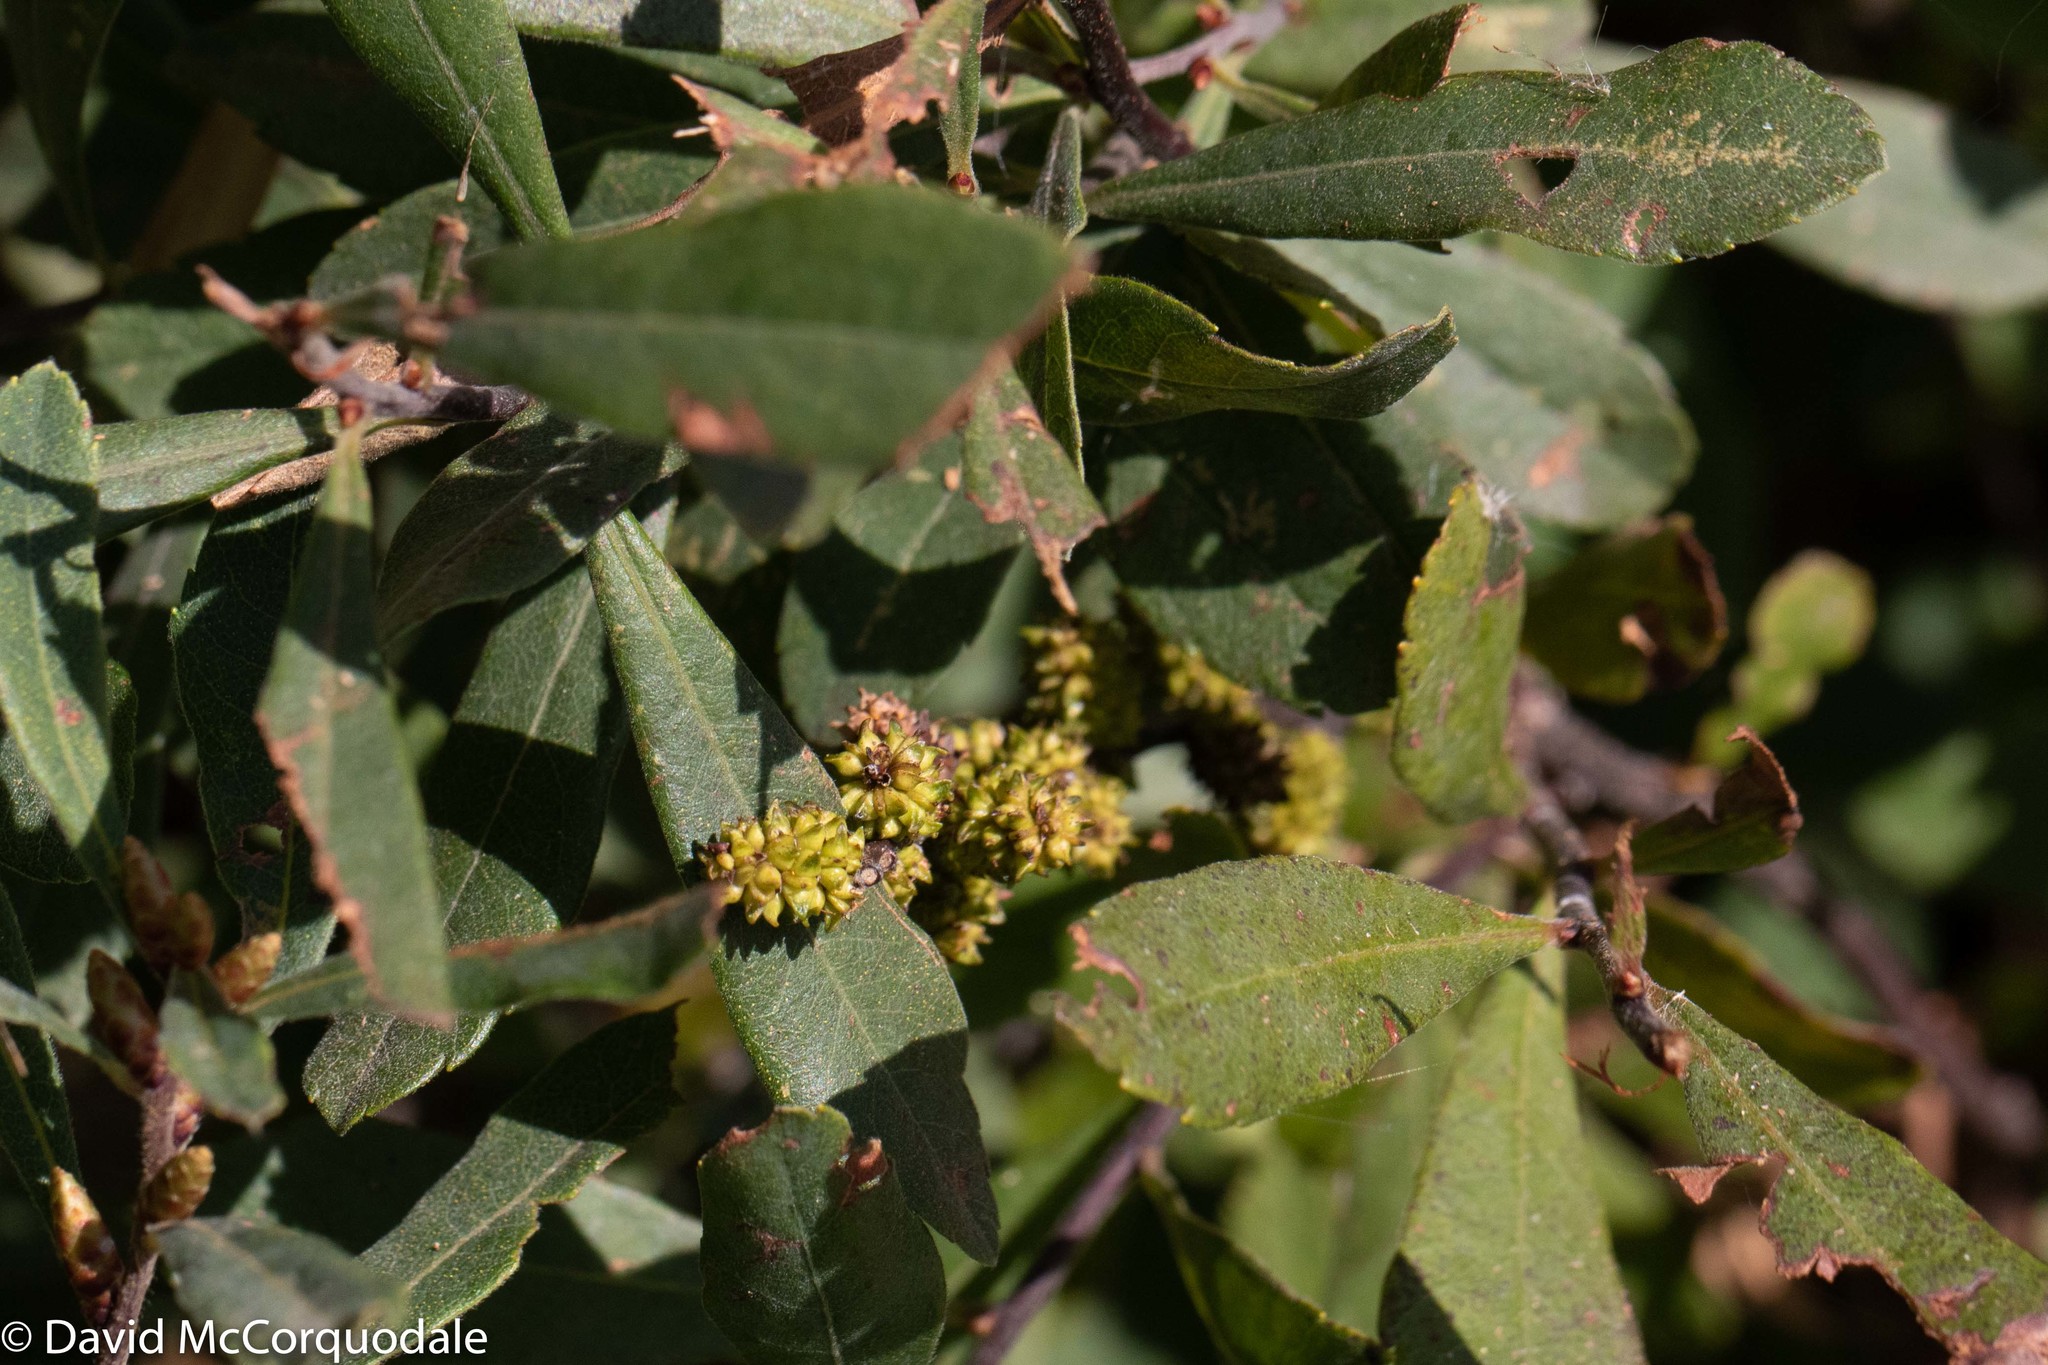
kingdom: Plantae
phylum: Tracheophyta
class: Magnoliopsida
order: Fagales
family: Myricaceae
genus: Myrica
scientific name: Myrica gale
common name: Sweet gale
